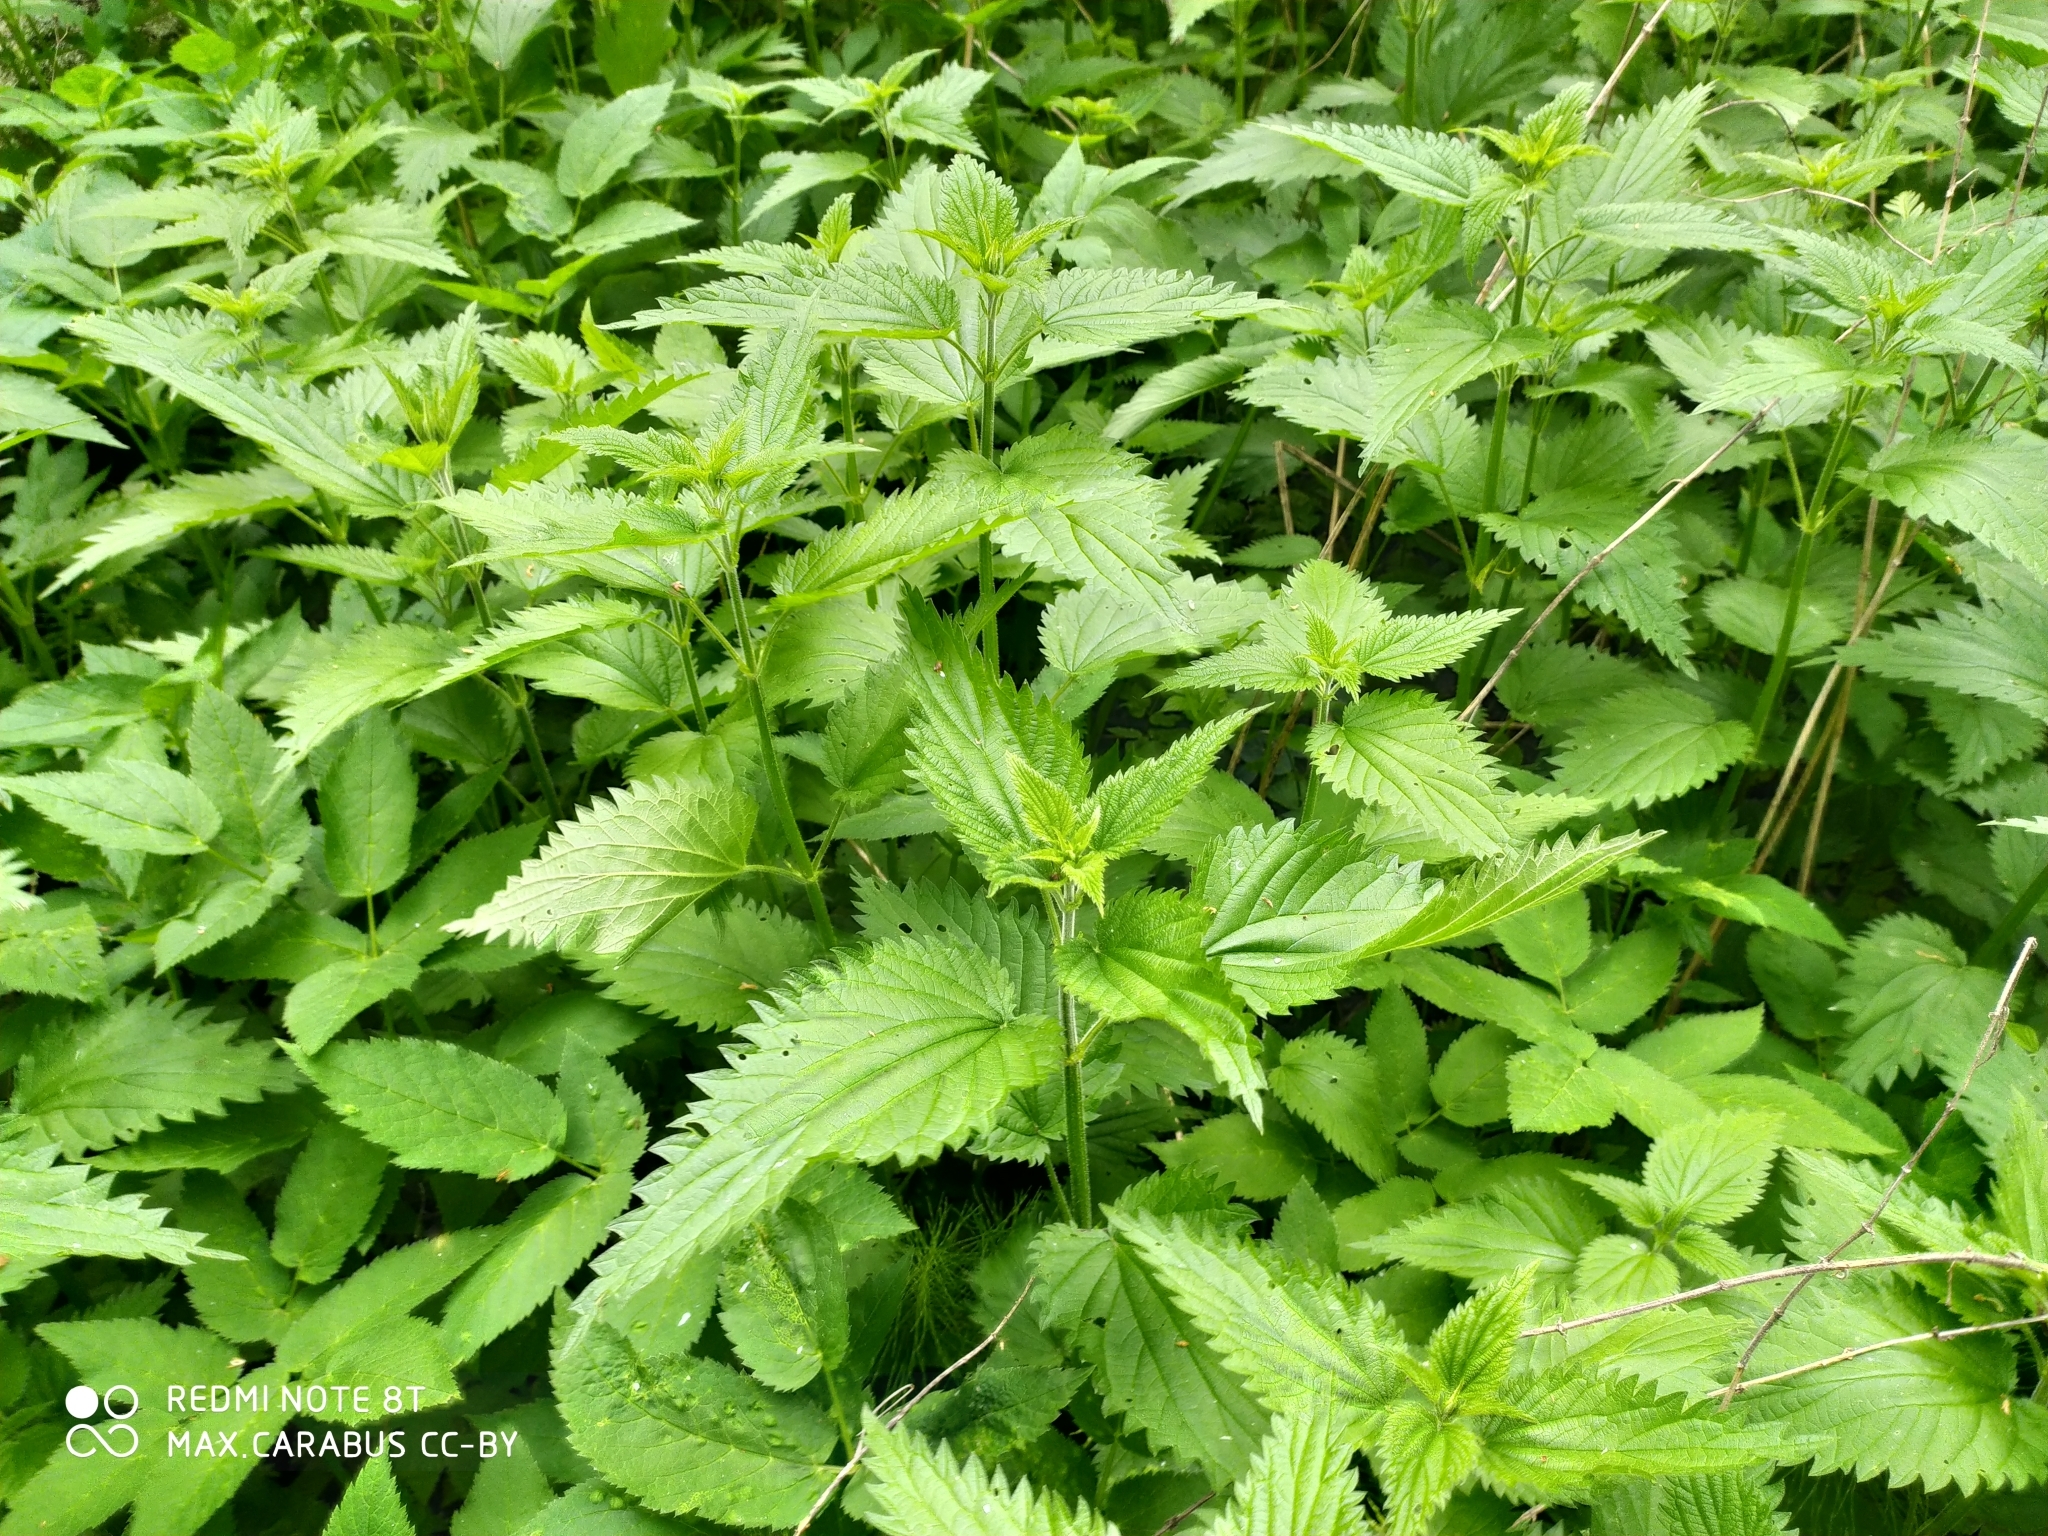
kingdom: Plantae
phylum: Tracheophyta
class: Magnoliopsida
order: Rosales
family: Urticaceae
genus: Urtica
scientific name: Urtica dioica
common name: Common nettle
